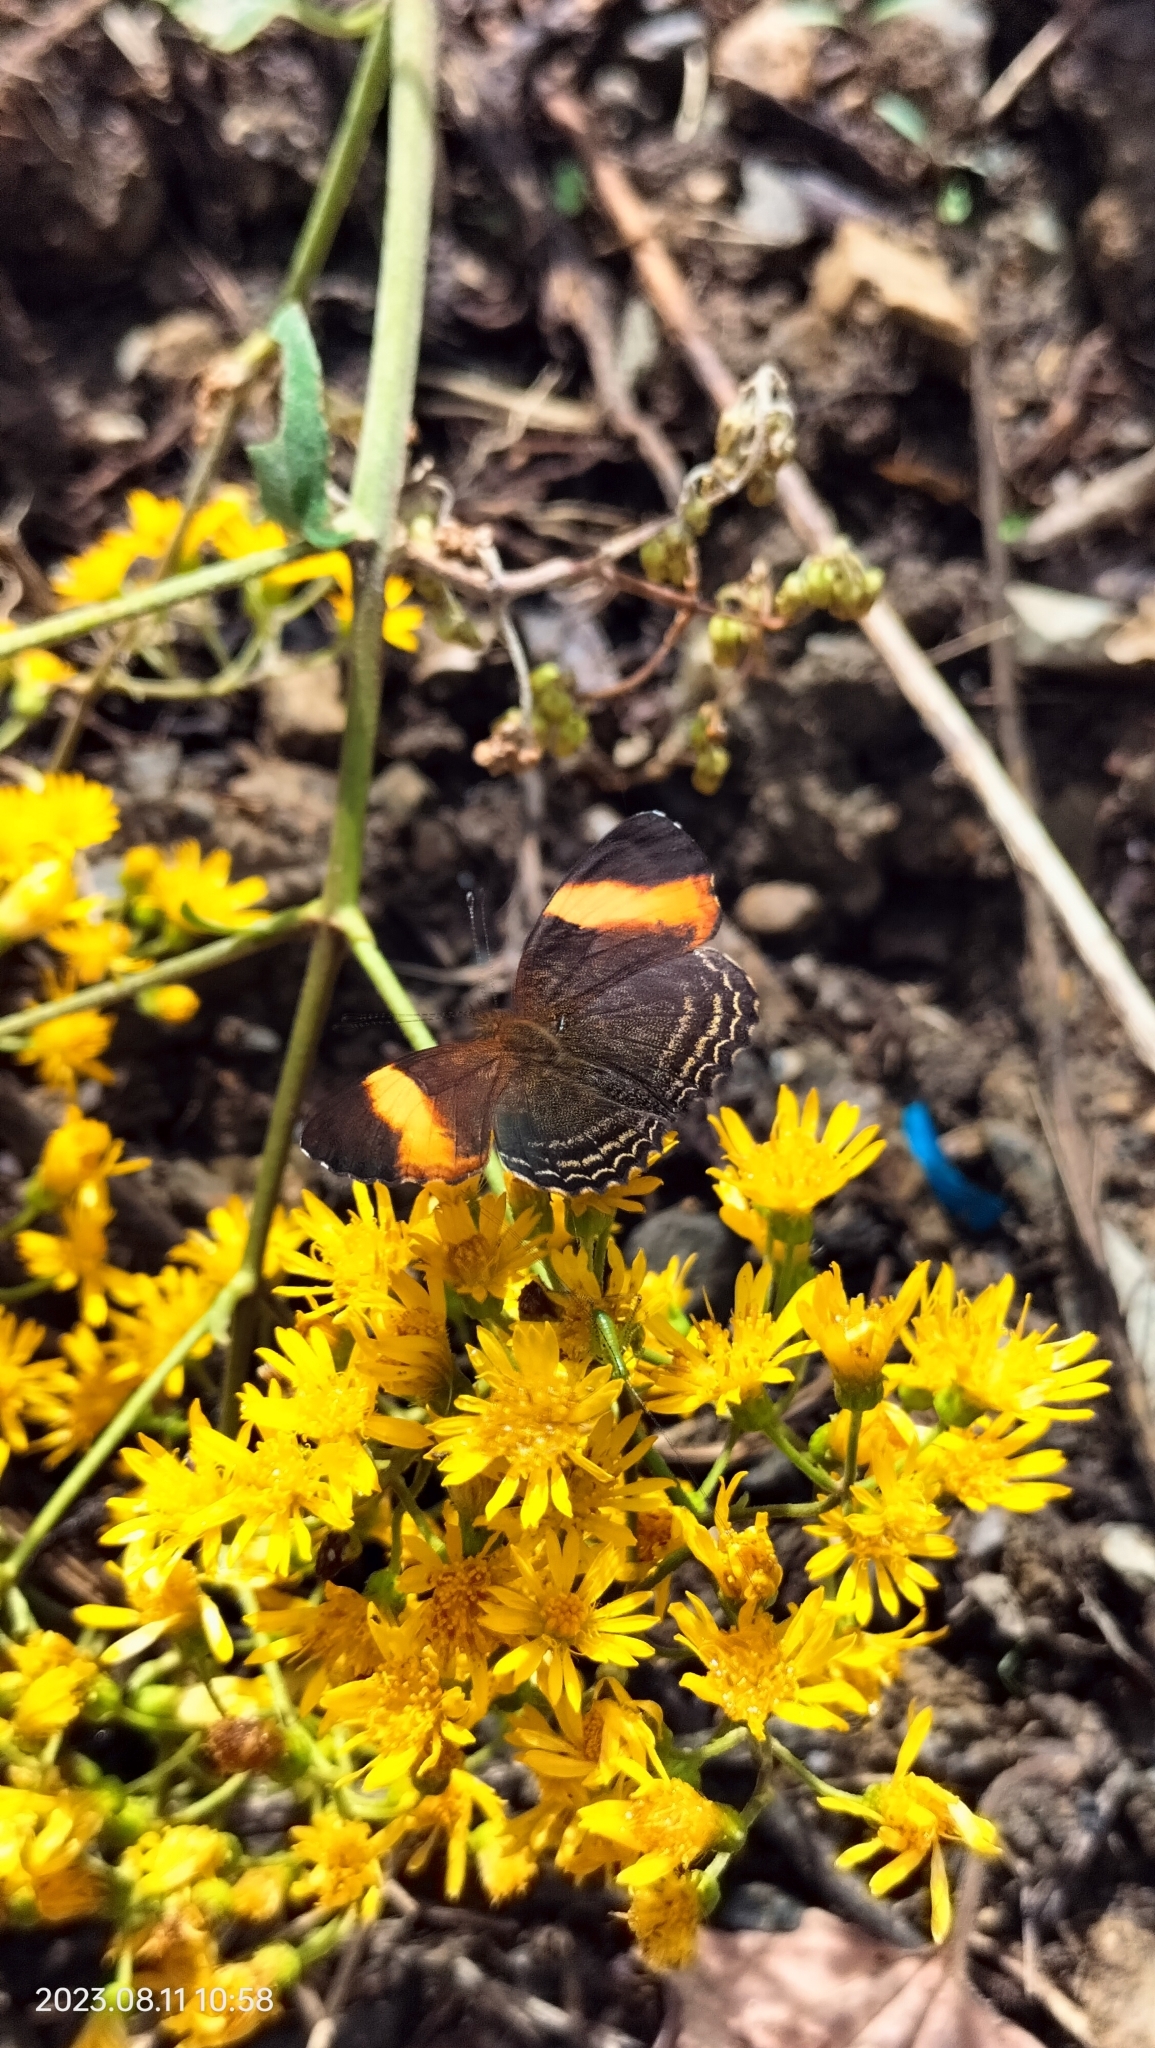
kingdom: Animalia
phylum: Arthropoda
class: Insecta
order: Lepidoptera
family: Nymphalidae
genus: Telenassa
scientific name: Telenassa jana
